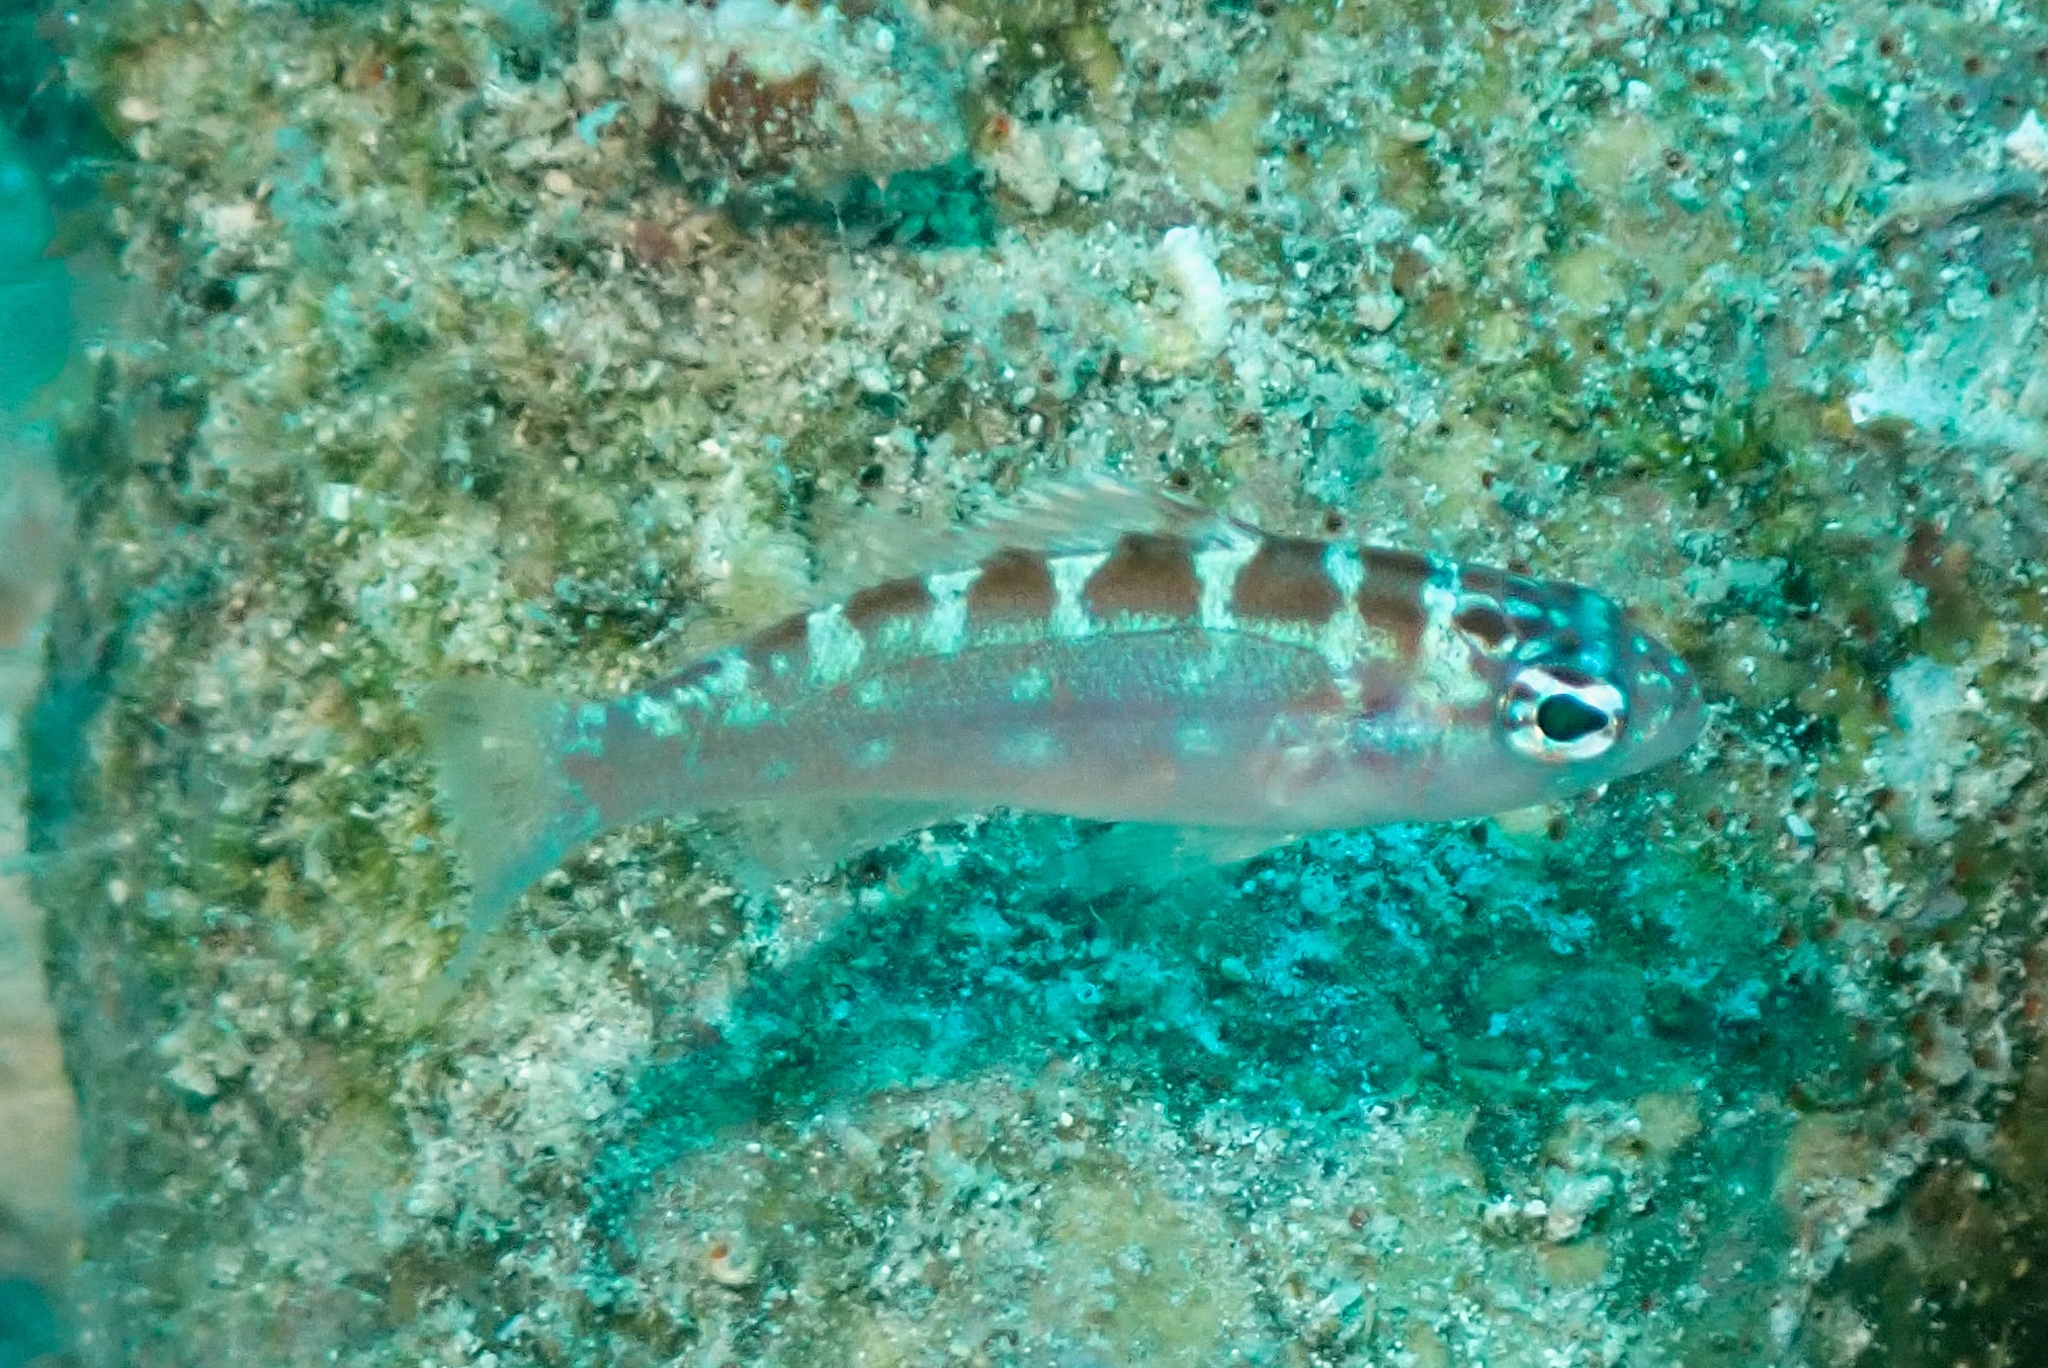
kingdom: Animalia
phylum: Chordata
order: Perciformes
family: Serranidae
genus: Serranus
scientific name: Serranus tortugarum
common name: Chalk bass
